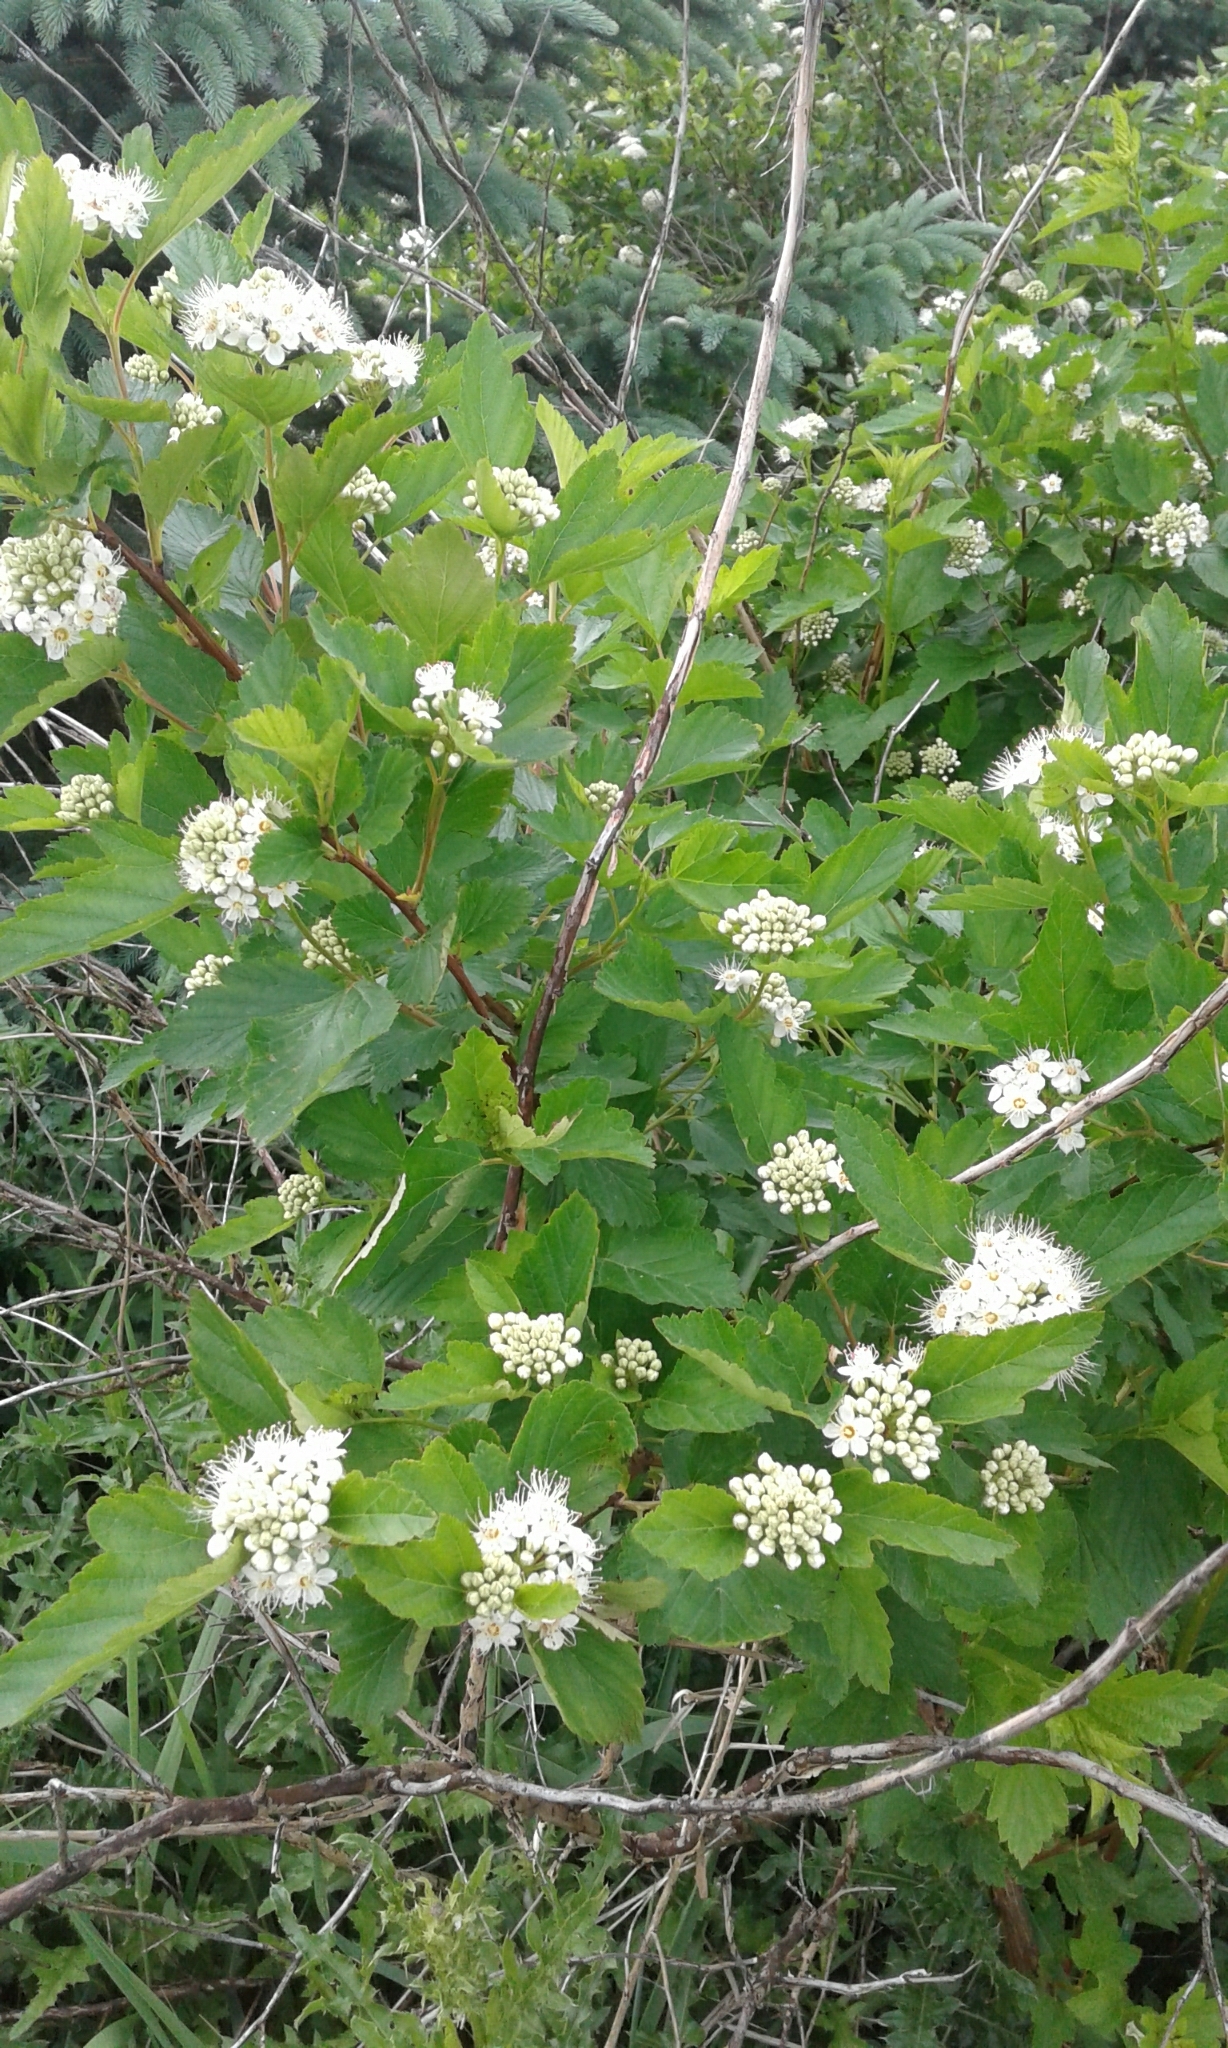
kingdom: Plantae
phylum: Tracheophyta
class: Magnoliopsida
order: Rosales
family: Rosaceae
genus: Physocarpus
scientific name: Physocarpus opulifolius
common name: Ninebark
